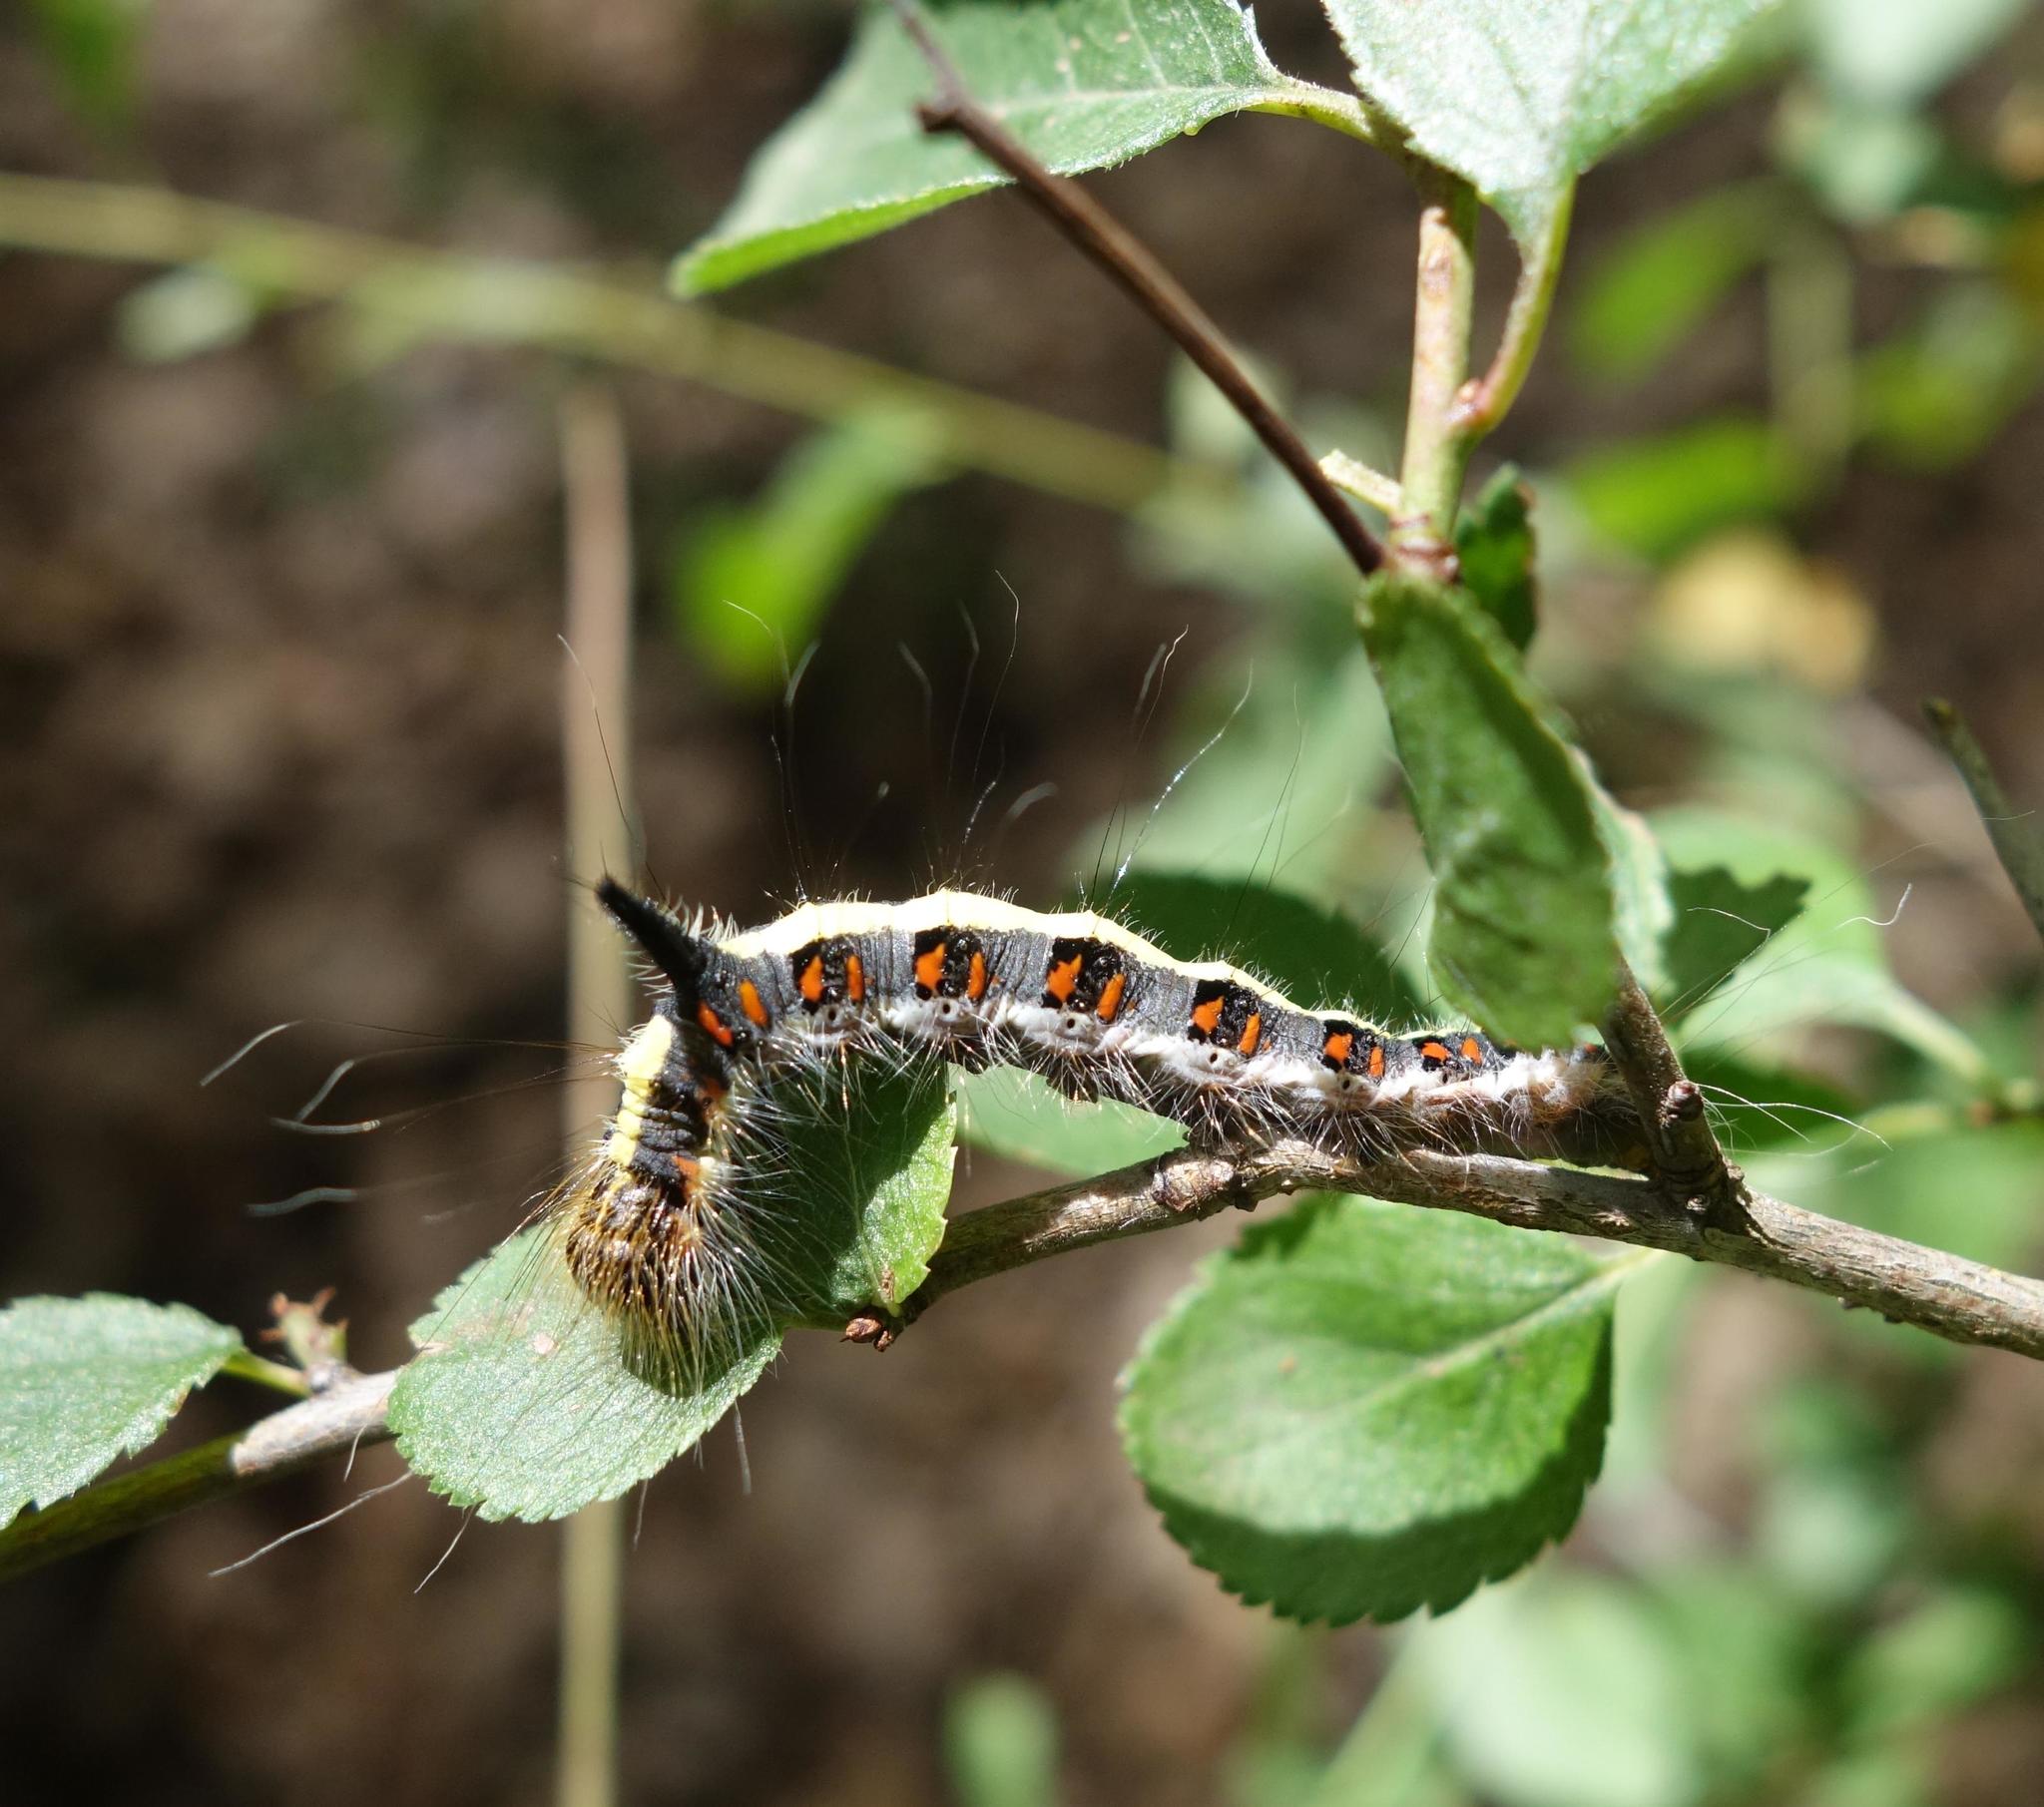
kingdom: Animalia
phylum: Arthropoda
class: Insecta
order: Lepidoptera
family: Noctuidae
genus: Acronicta
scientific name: Acronicta psi
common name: Grey dagger
